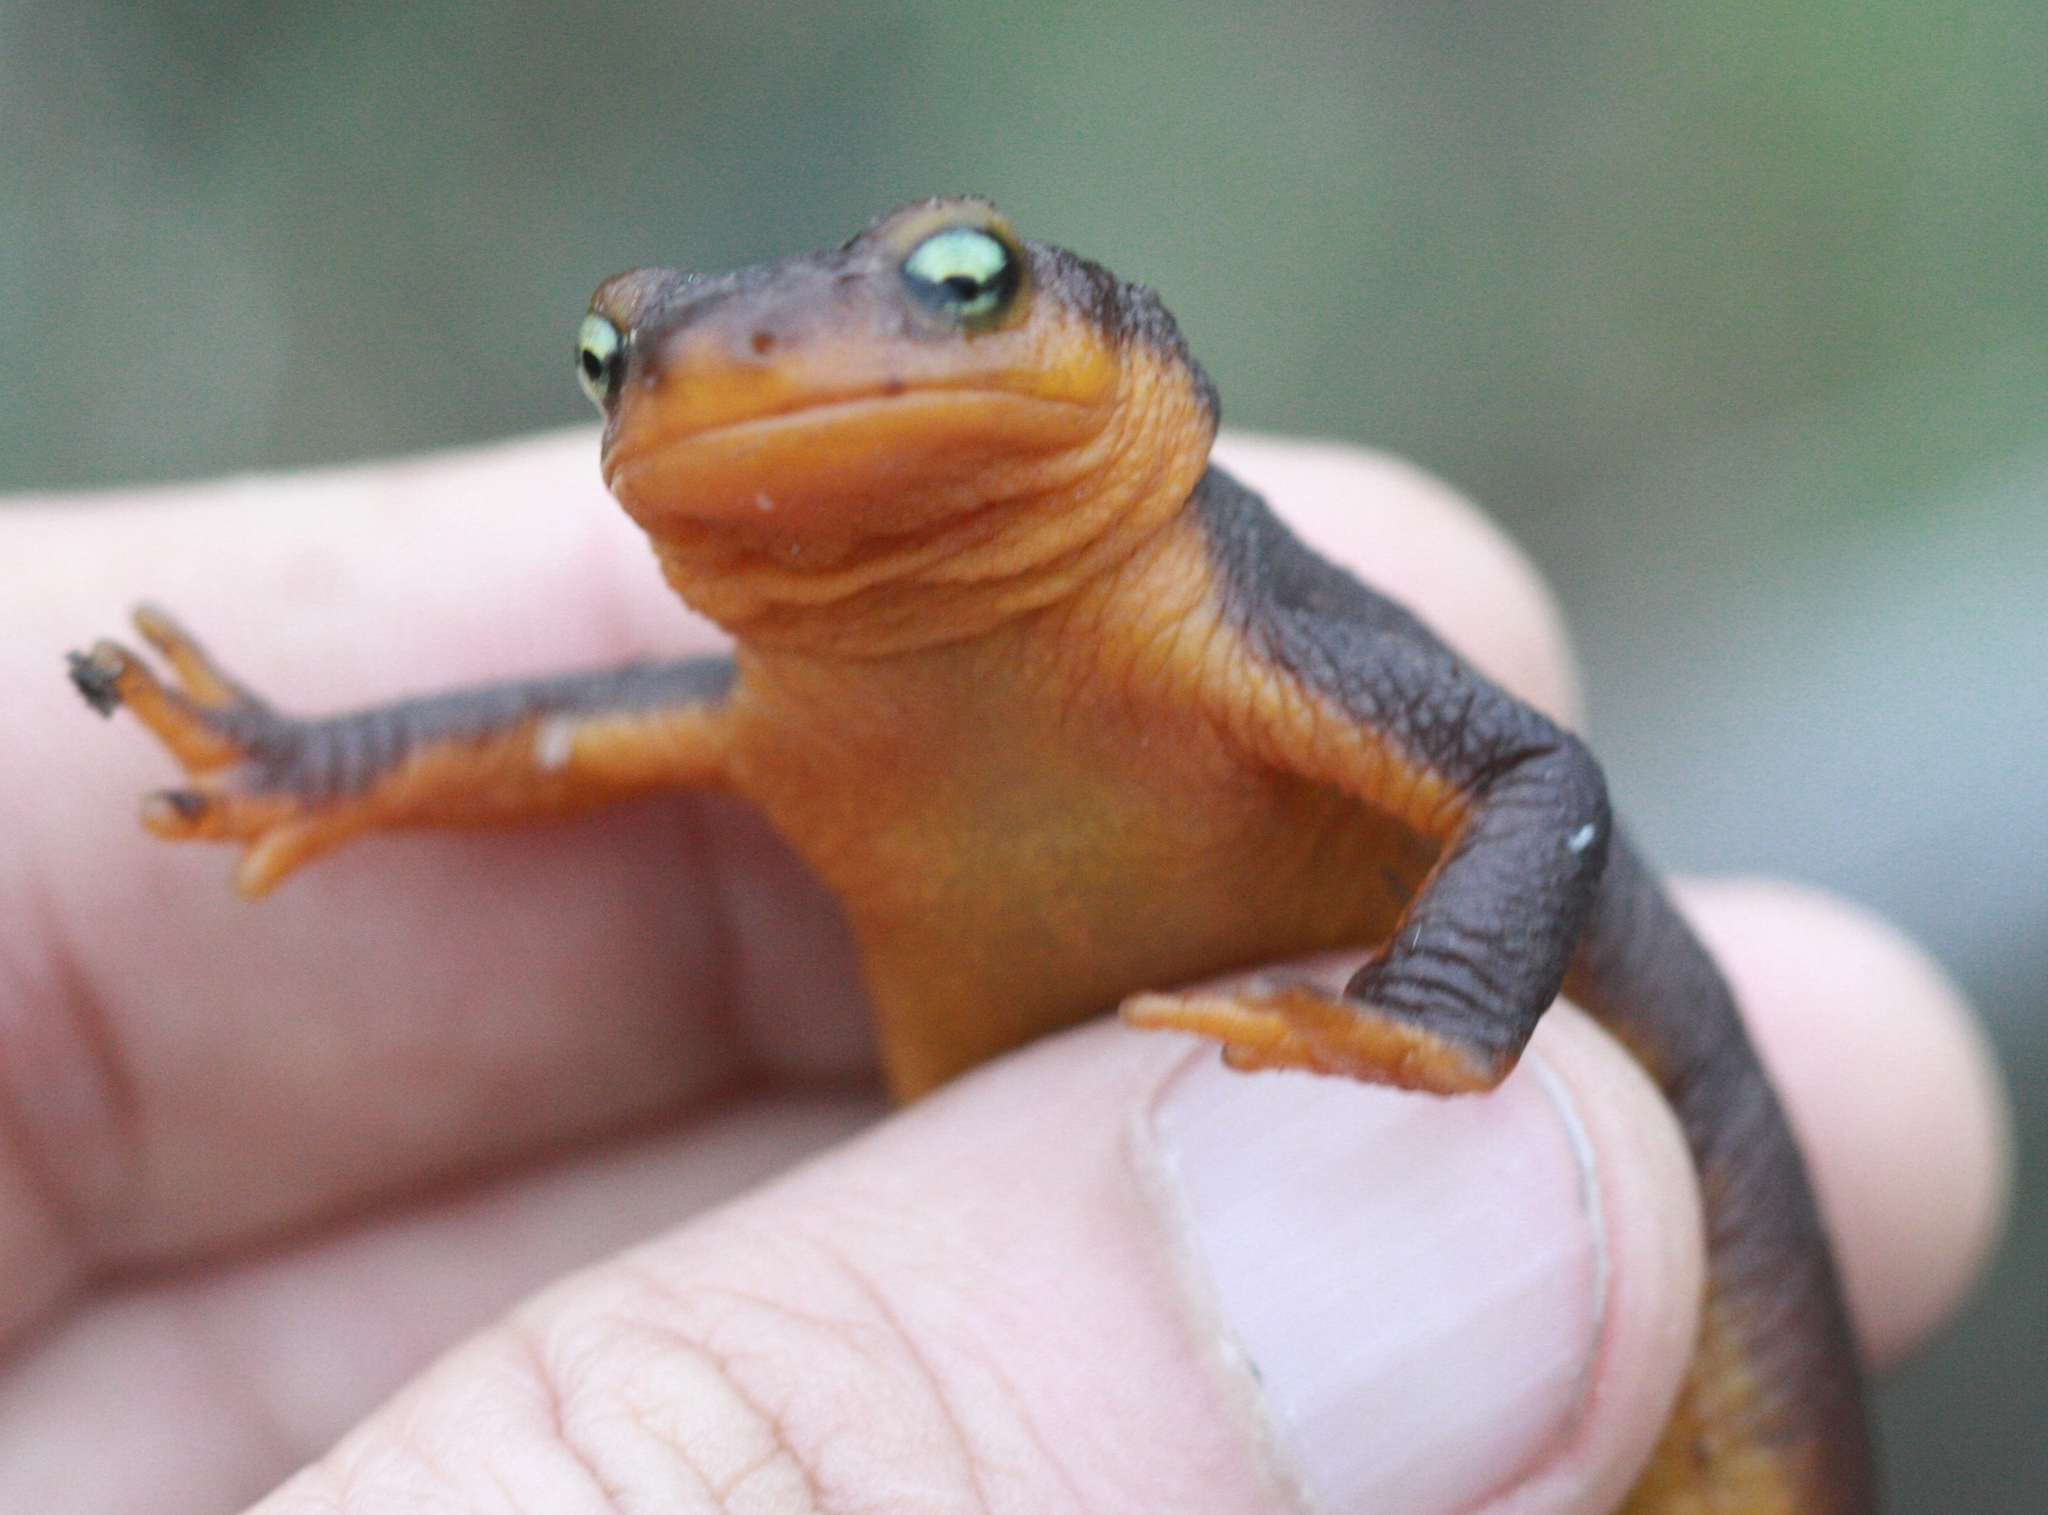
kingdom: Animalia
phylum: Chordata
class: Amphibia
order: Caudata
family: Salamandridae
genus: Taricha
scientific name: Taricha torosa
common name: California newt
